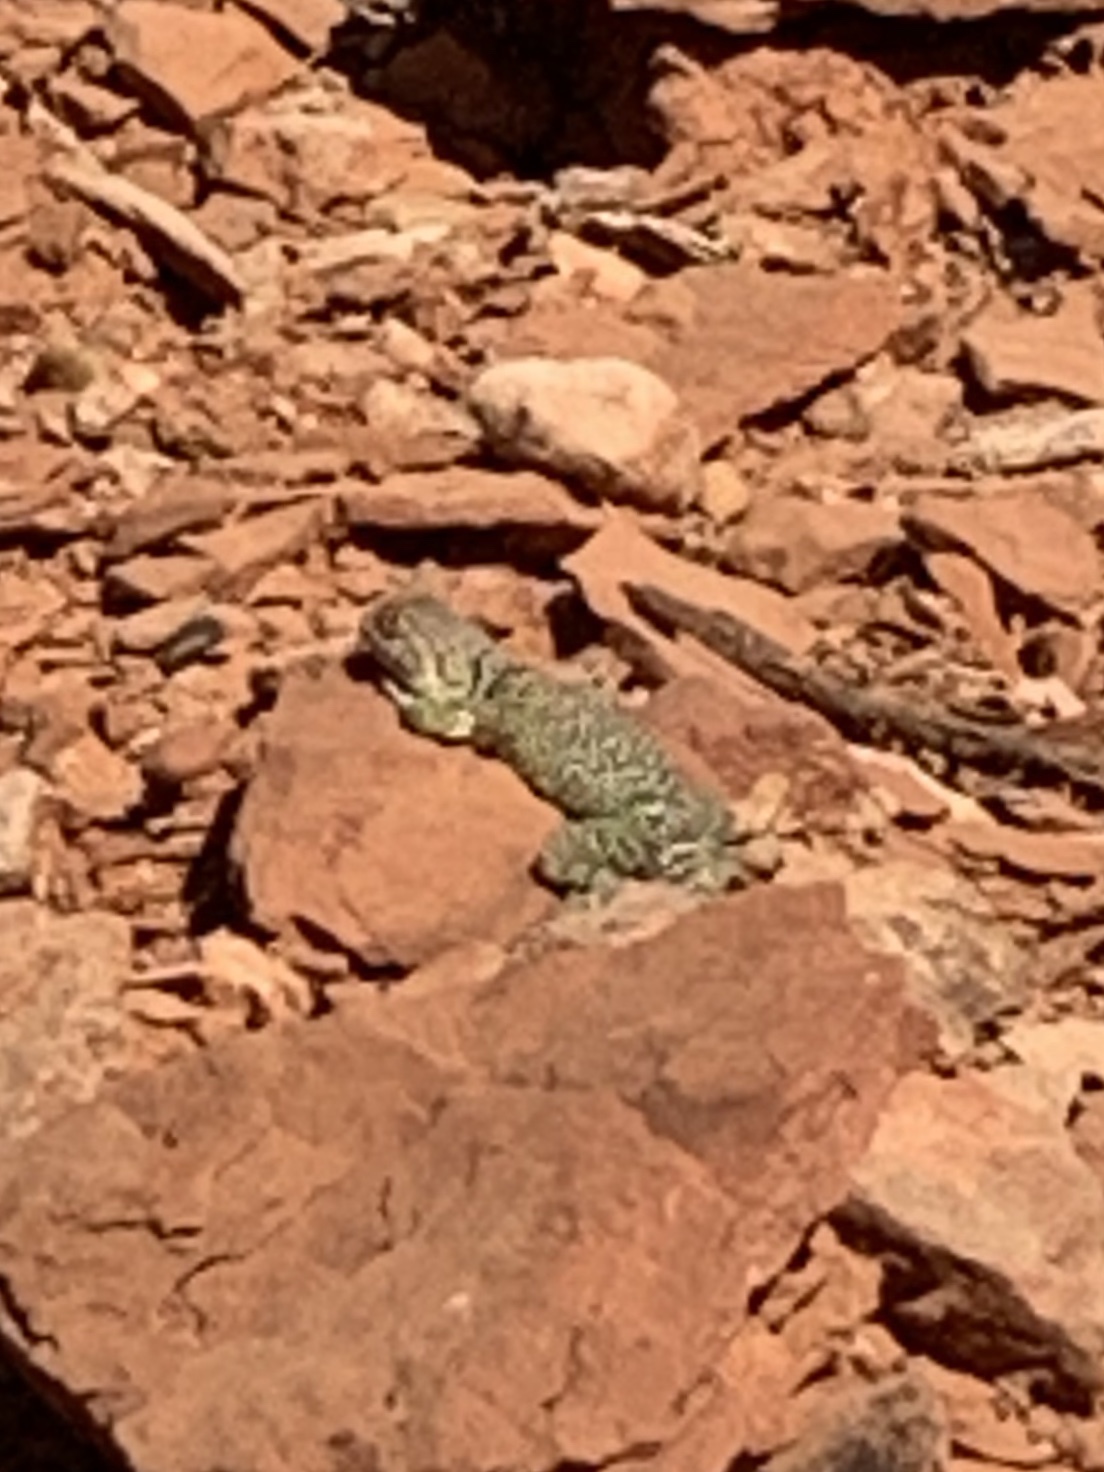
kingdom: Animalia
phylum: Chordata
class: Squamata
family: Crotaphytidae
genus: Crotaphytus
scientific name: Crotaphytus collaris
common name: Collared lizard
